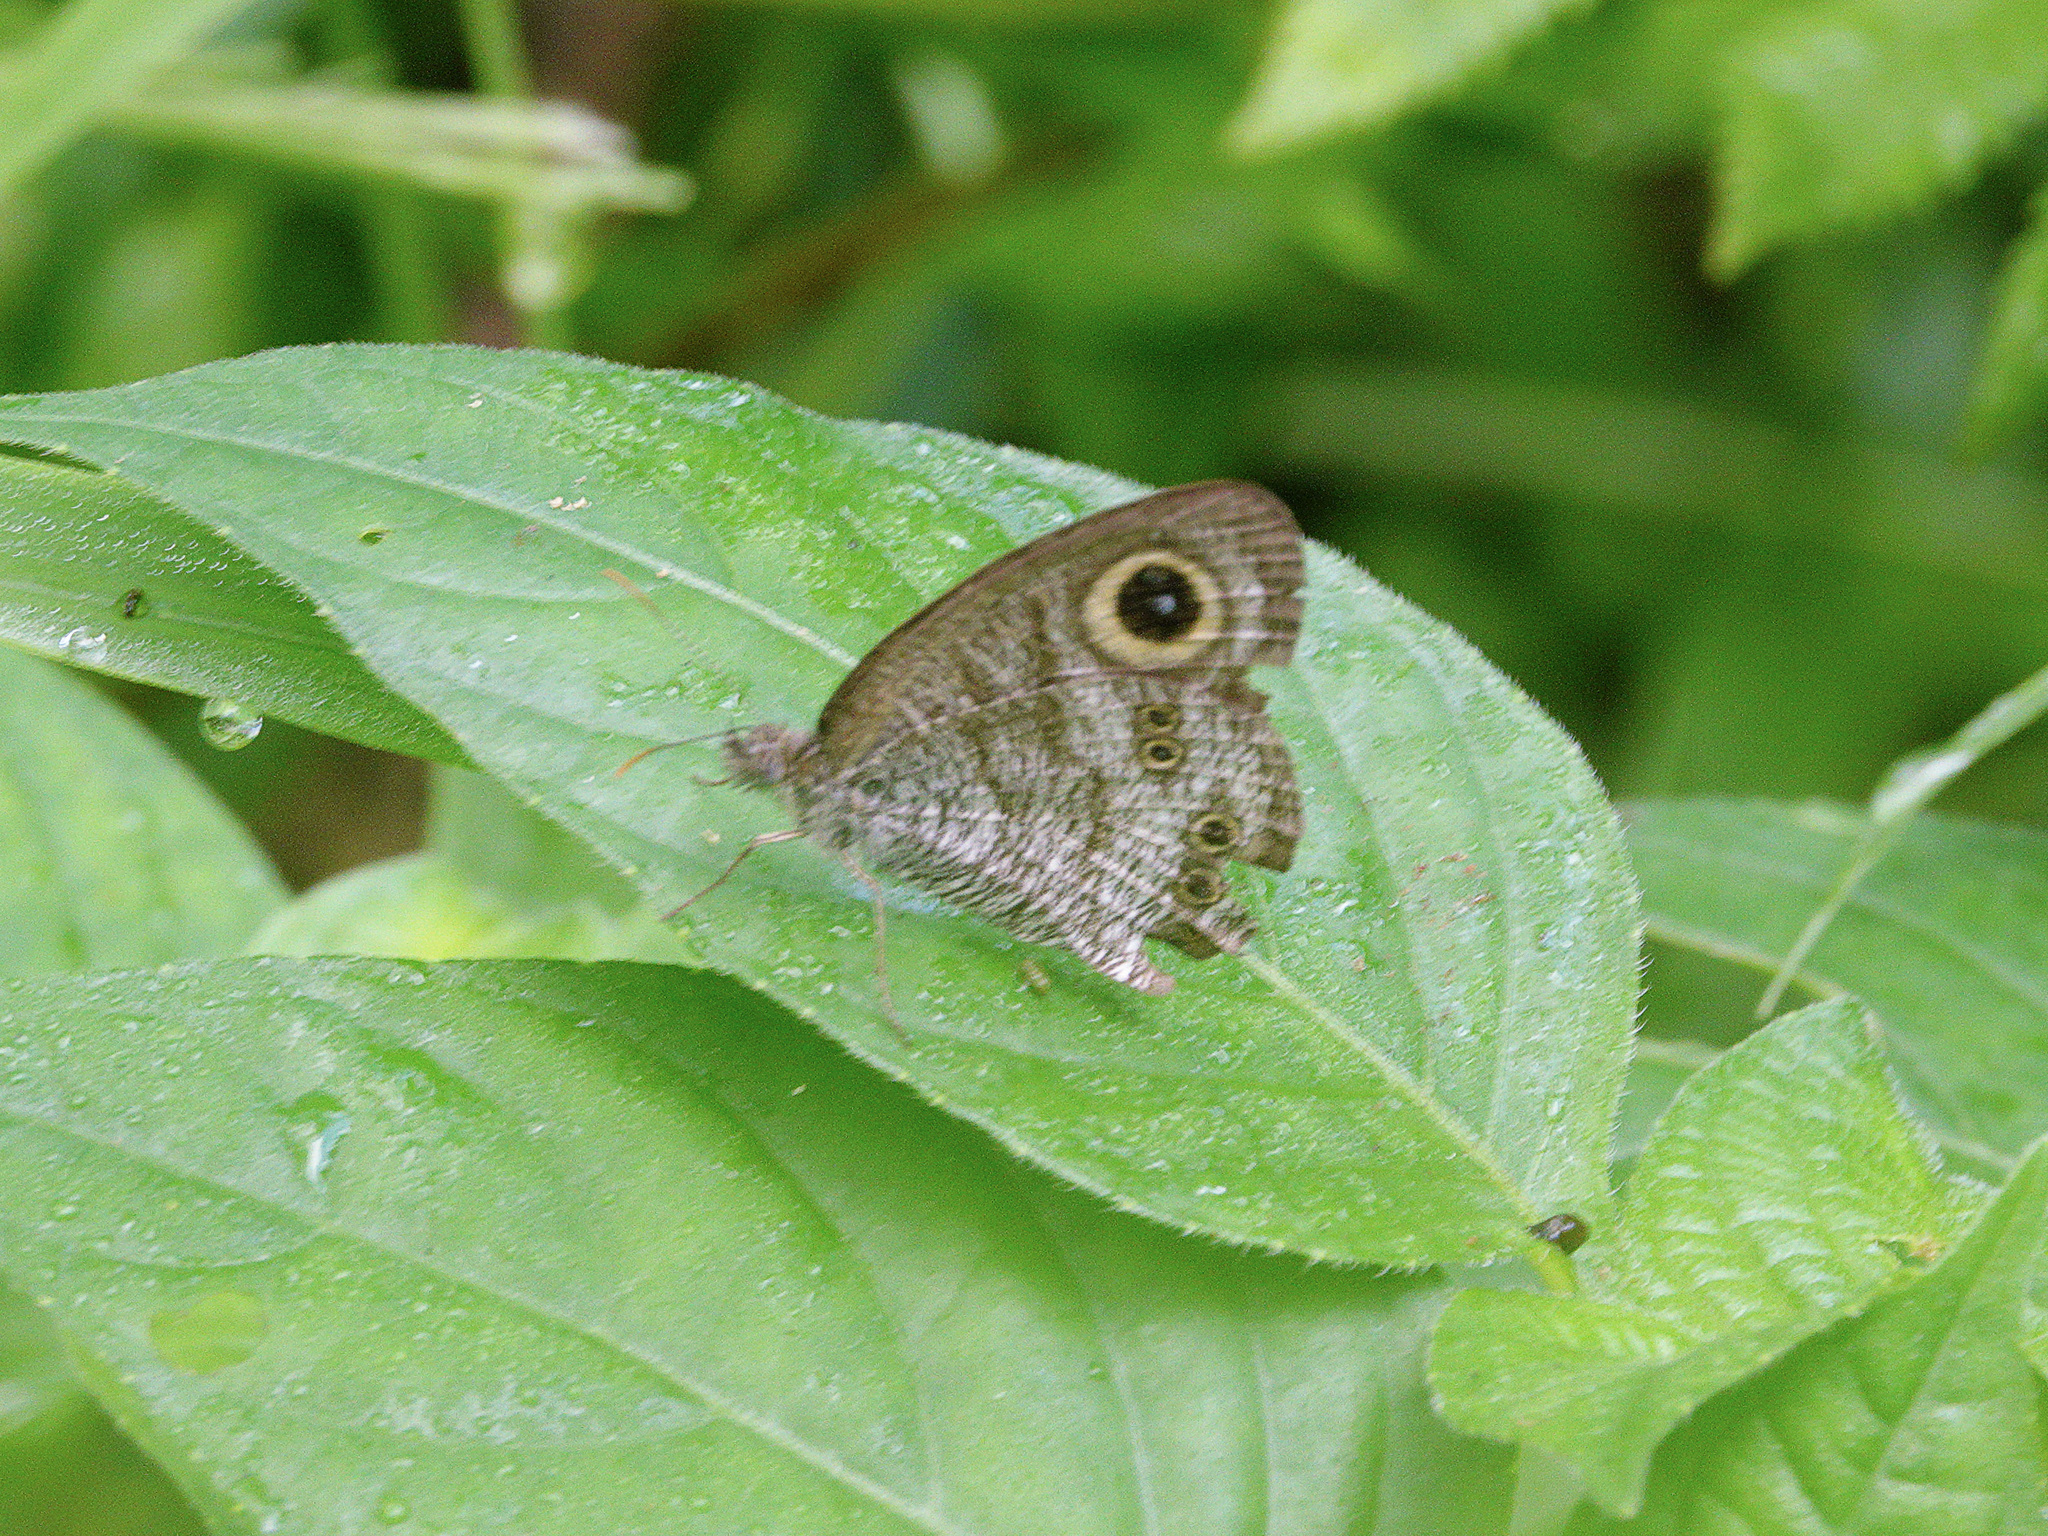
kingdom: Animalia
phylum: Arthropoda
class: Insecta
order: Lepidoptera
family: Nymphalidae
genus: Ypthima
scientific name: Ypthima baldus
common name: Common five-ring
